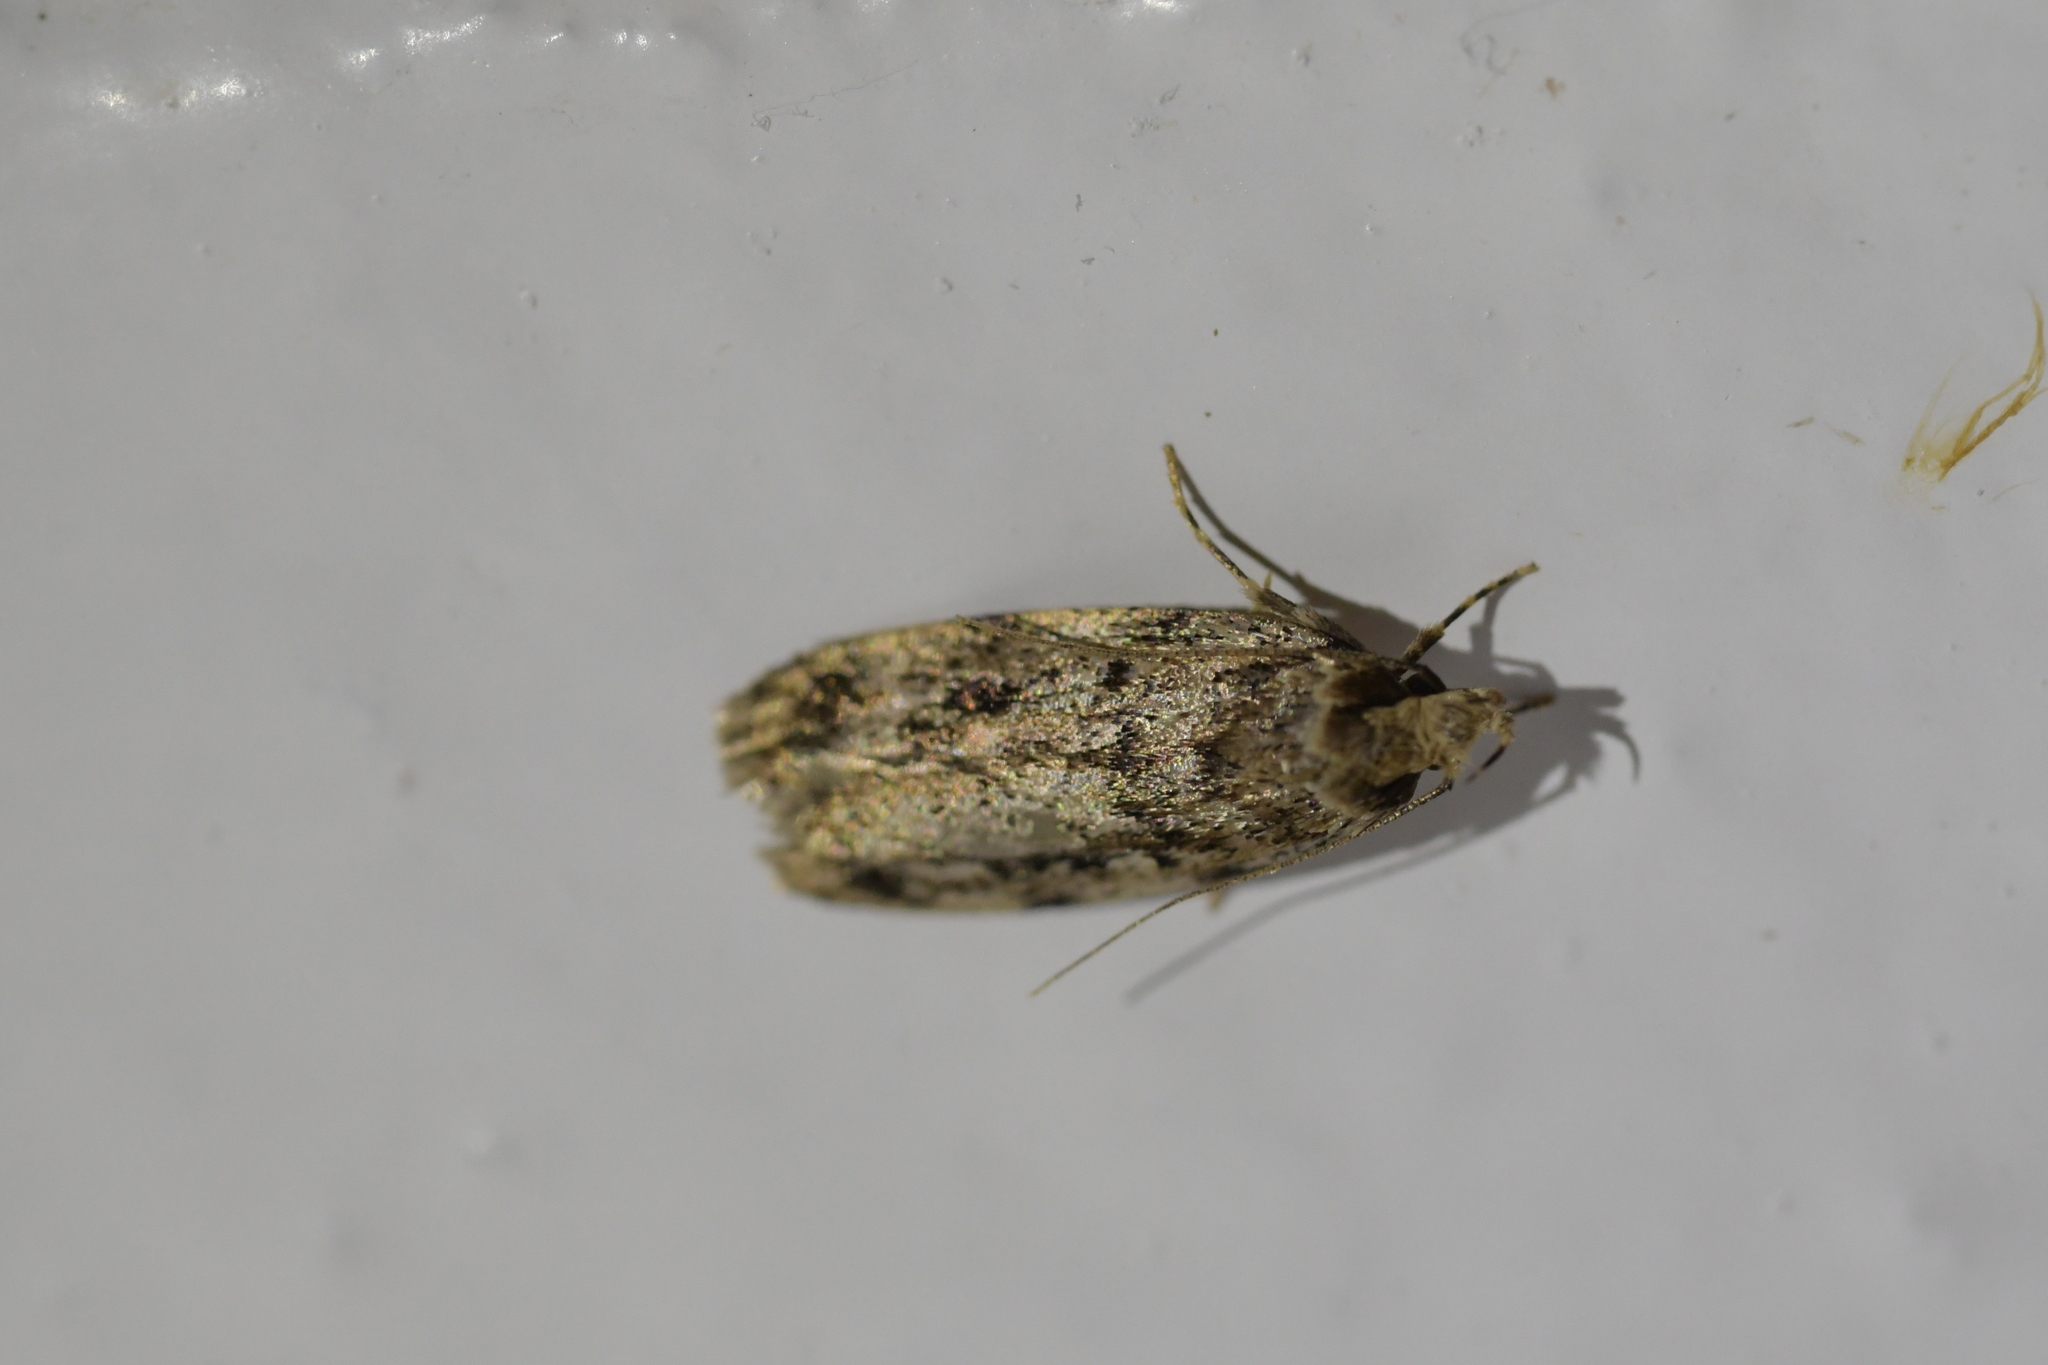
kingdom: Animalia
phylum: Arthropoda
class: Insecta
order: Lepidoptera
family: Oecophoridae
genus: Hofmannophila
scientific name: Hofmannophila pseudospretella
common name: Brown house moth
